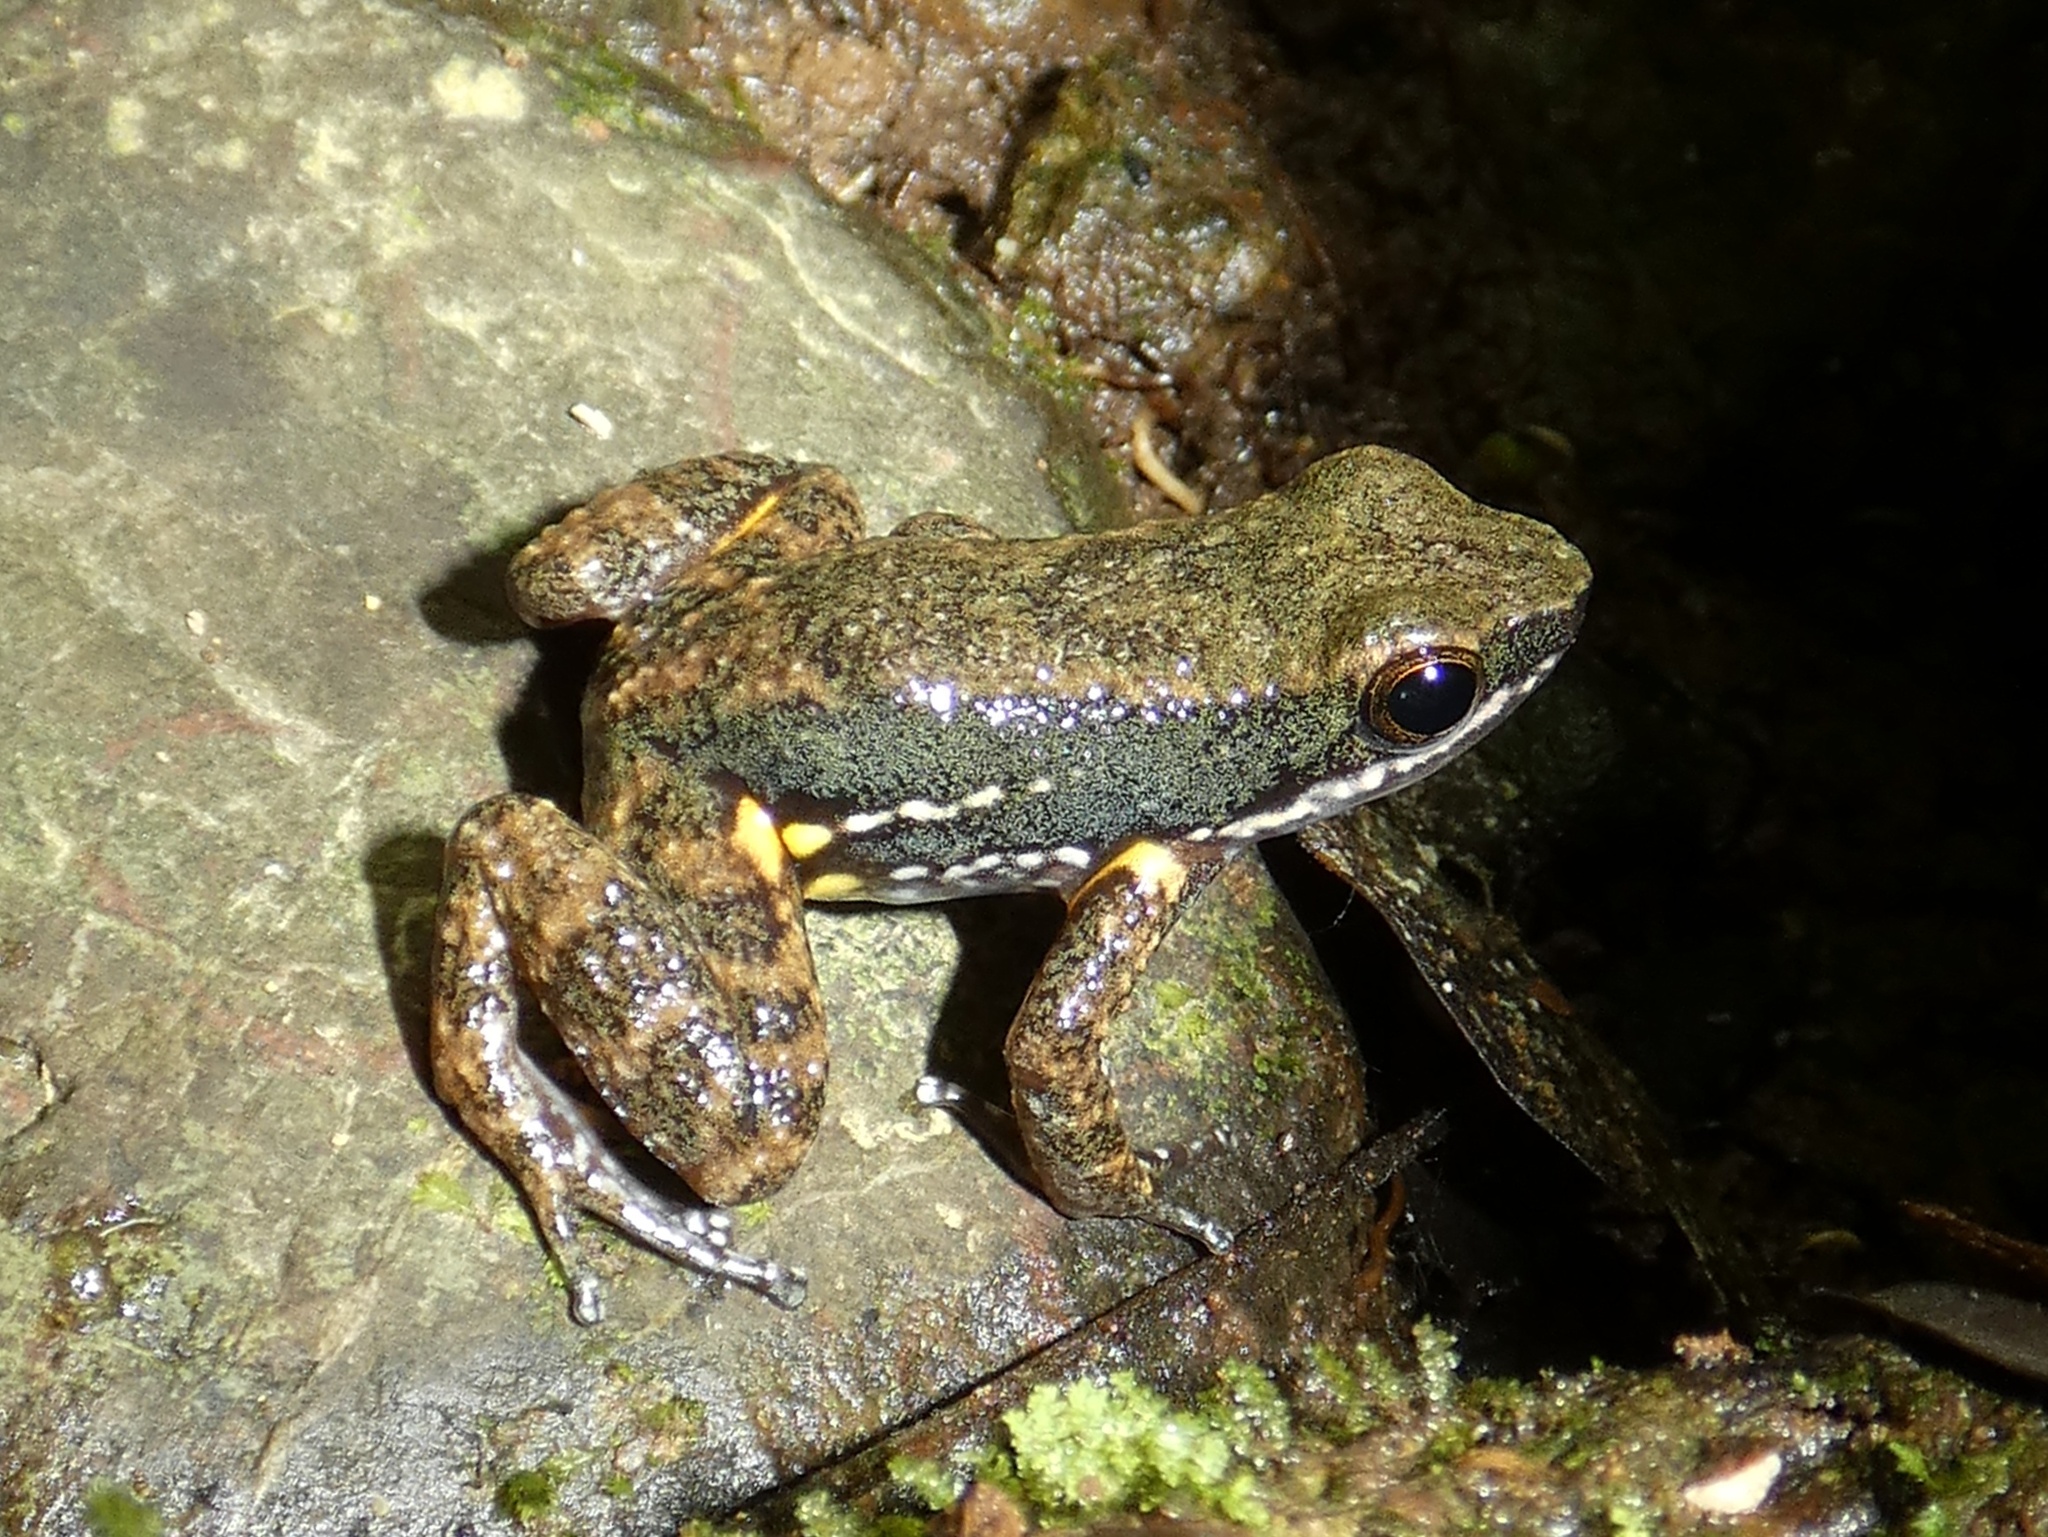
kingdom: Animalia
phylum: Chordata
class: Amphibia
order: Anura
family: Dendrobatidae
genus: Colostethus
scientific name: Colostethus panamansis
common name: Panama rocket frog
